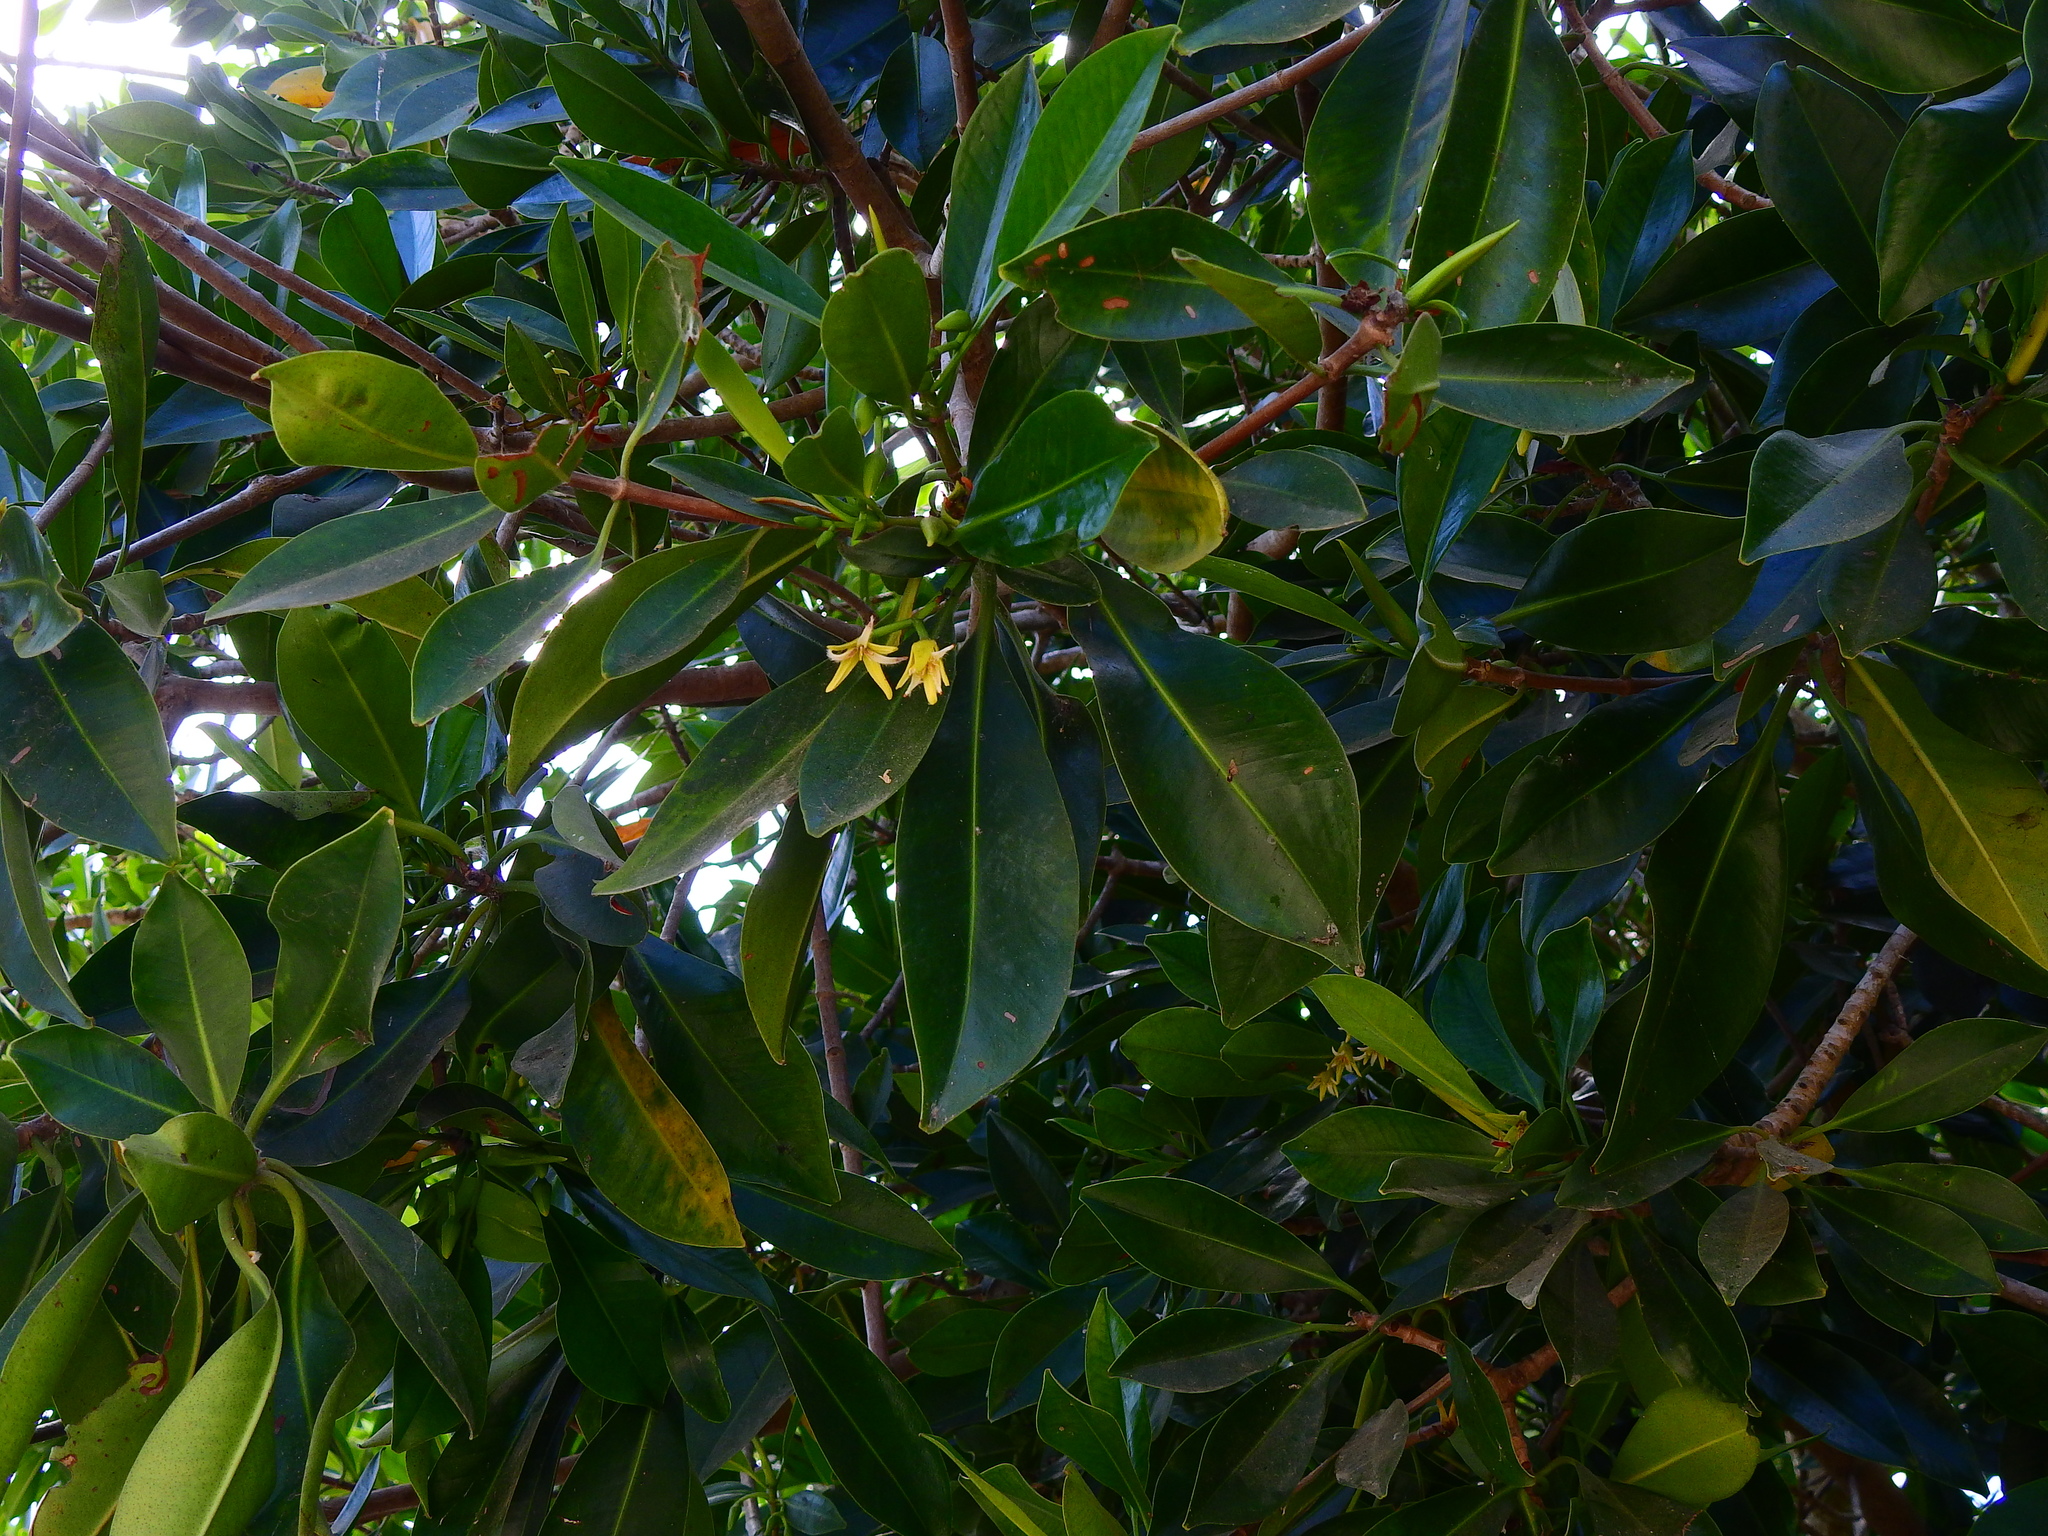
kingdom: Plantae
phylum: Tracheophyta
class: Magnoliopsida
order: Malpighiales
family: Rhizophoraceae
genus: Rhizophora
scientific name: Rhizophora mangle
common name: Red mangrove
